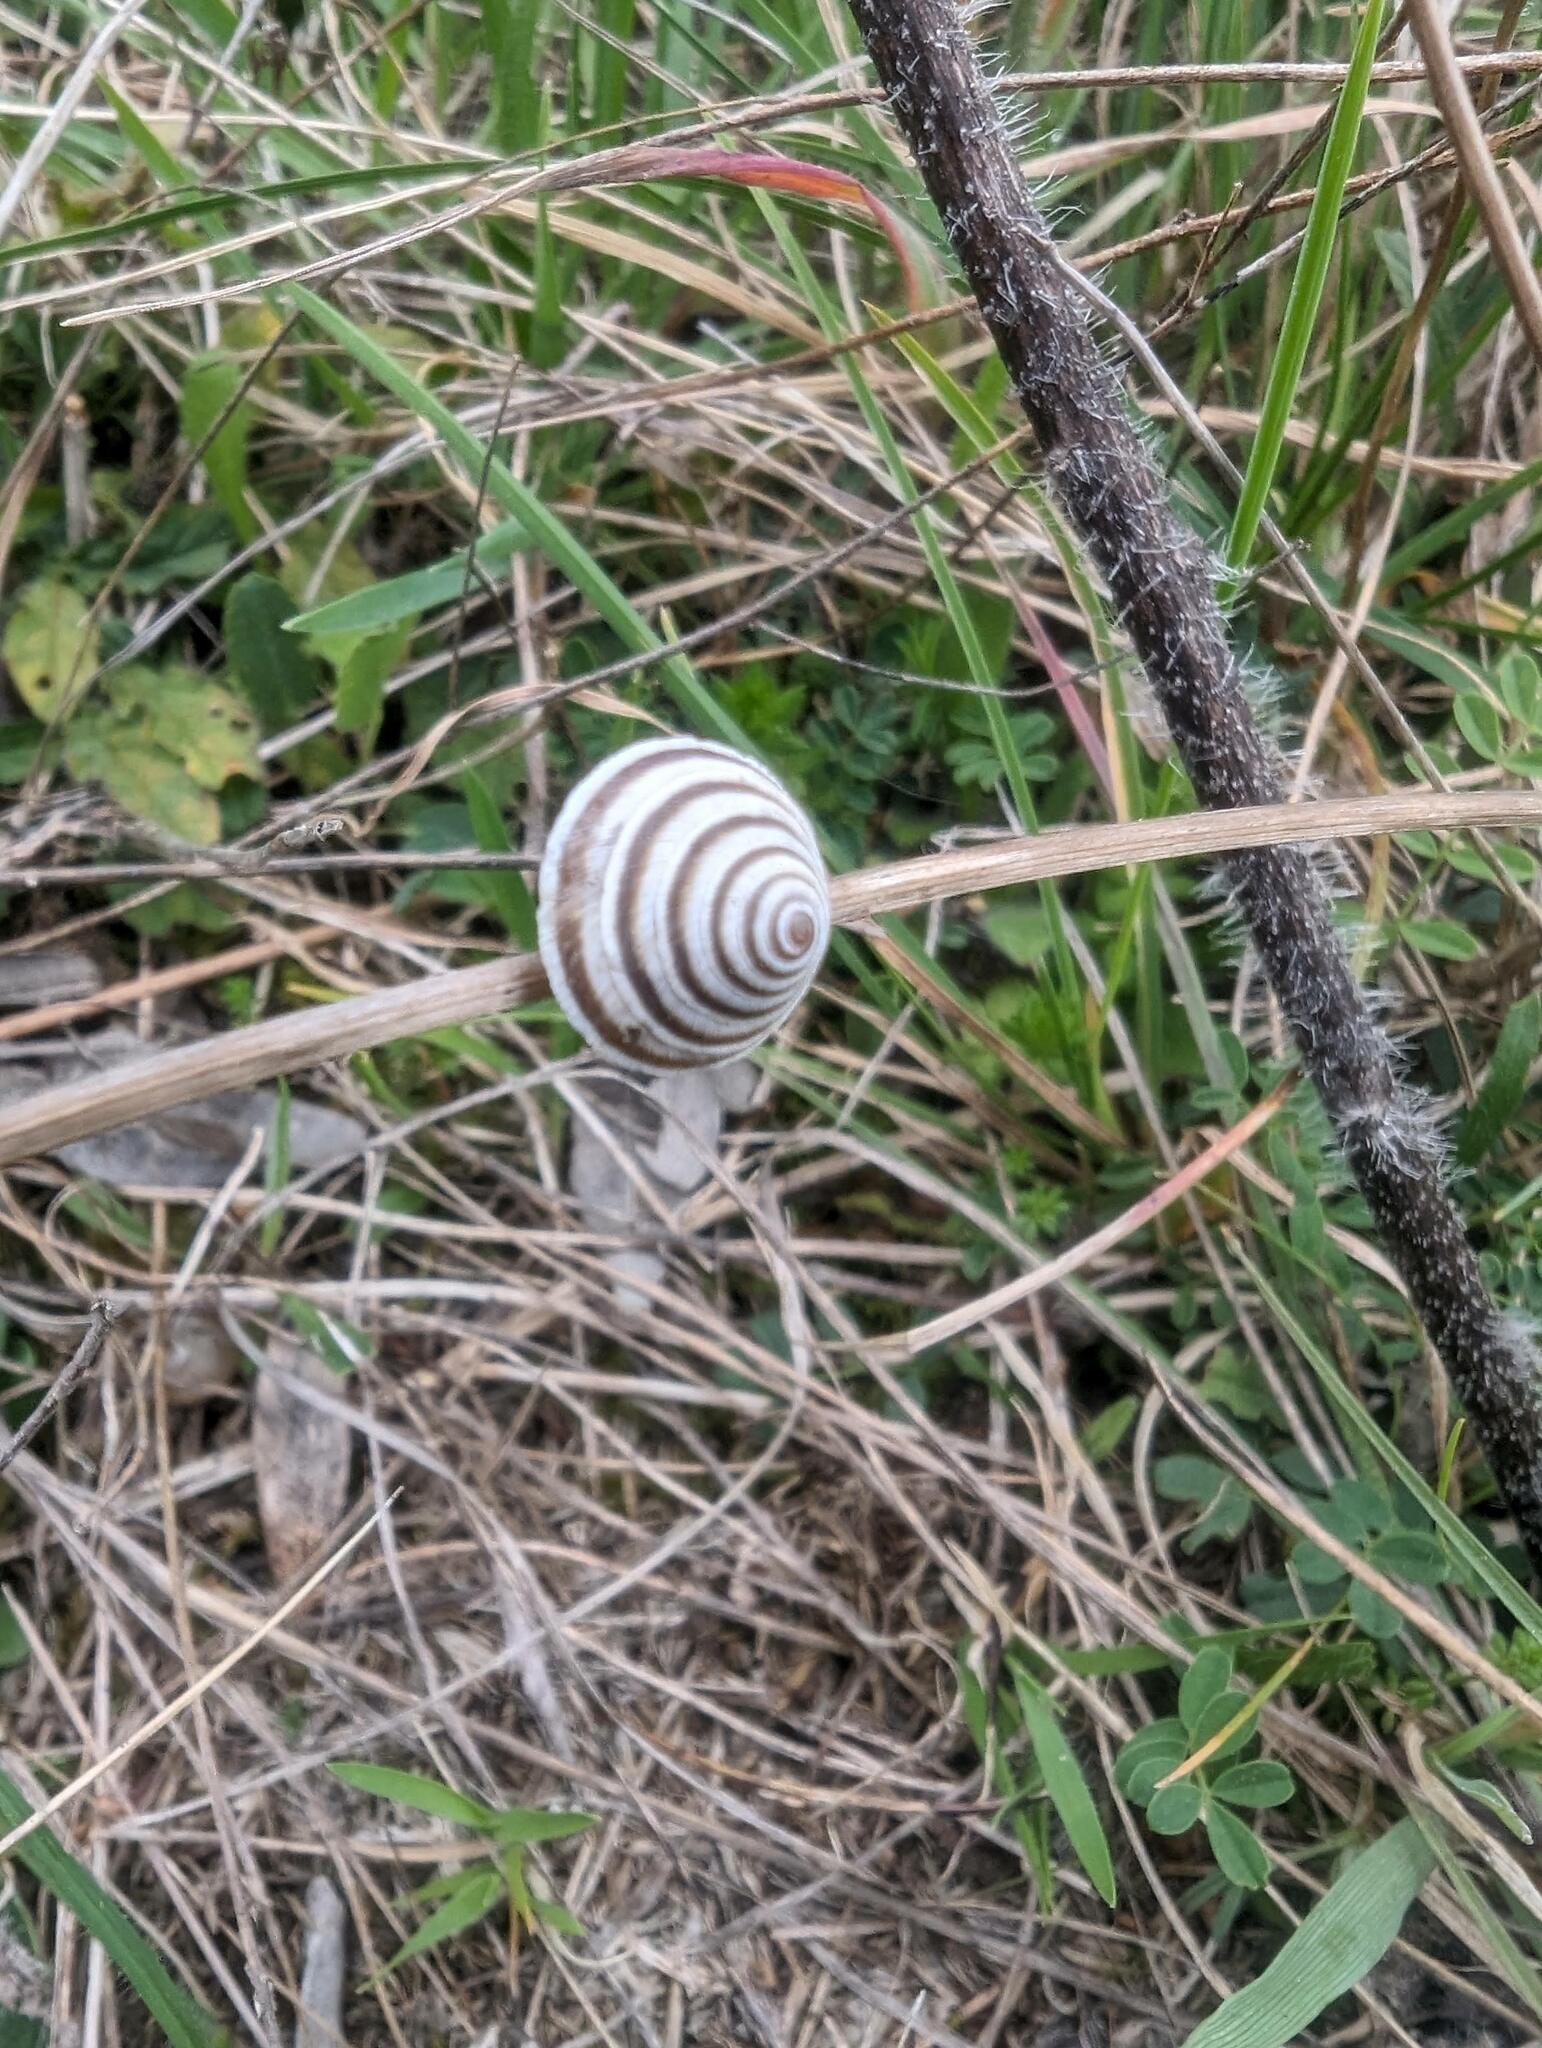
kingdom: Animalia
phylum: Mollusca
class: Gastropoda
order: Stylommatophora
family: Geomitridae
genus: Trochoidea
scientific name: Trochoidea elegans
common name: Elegant helicellid
